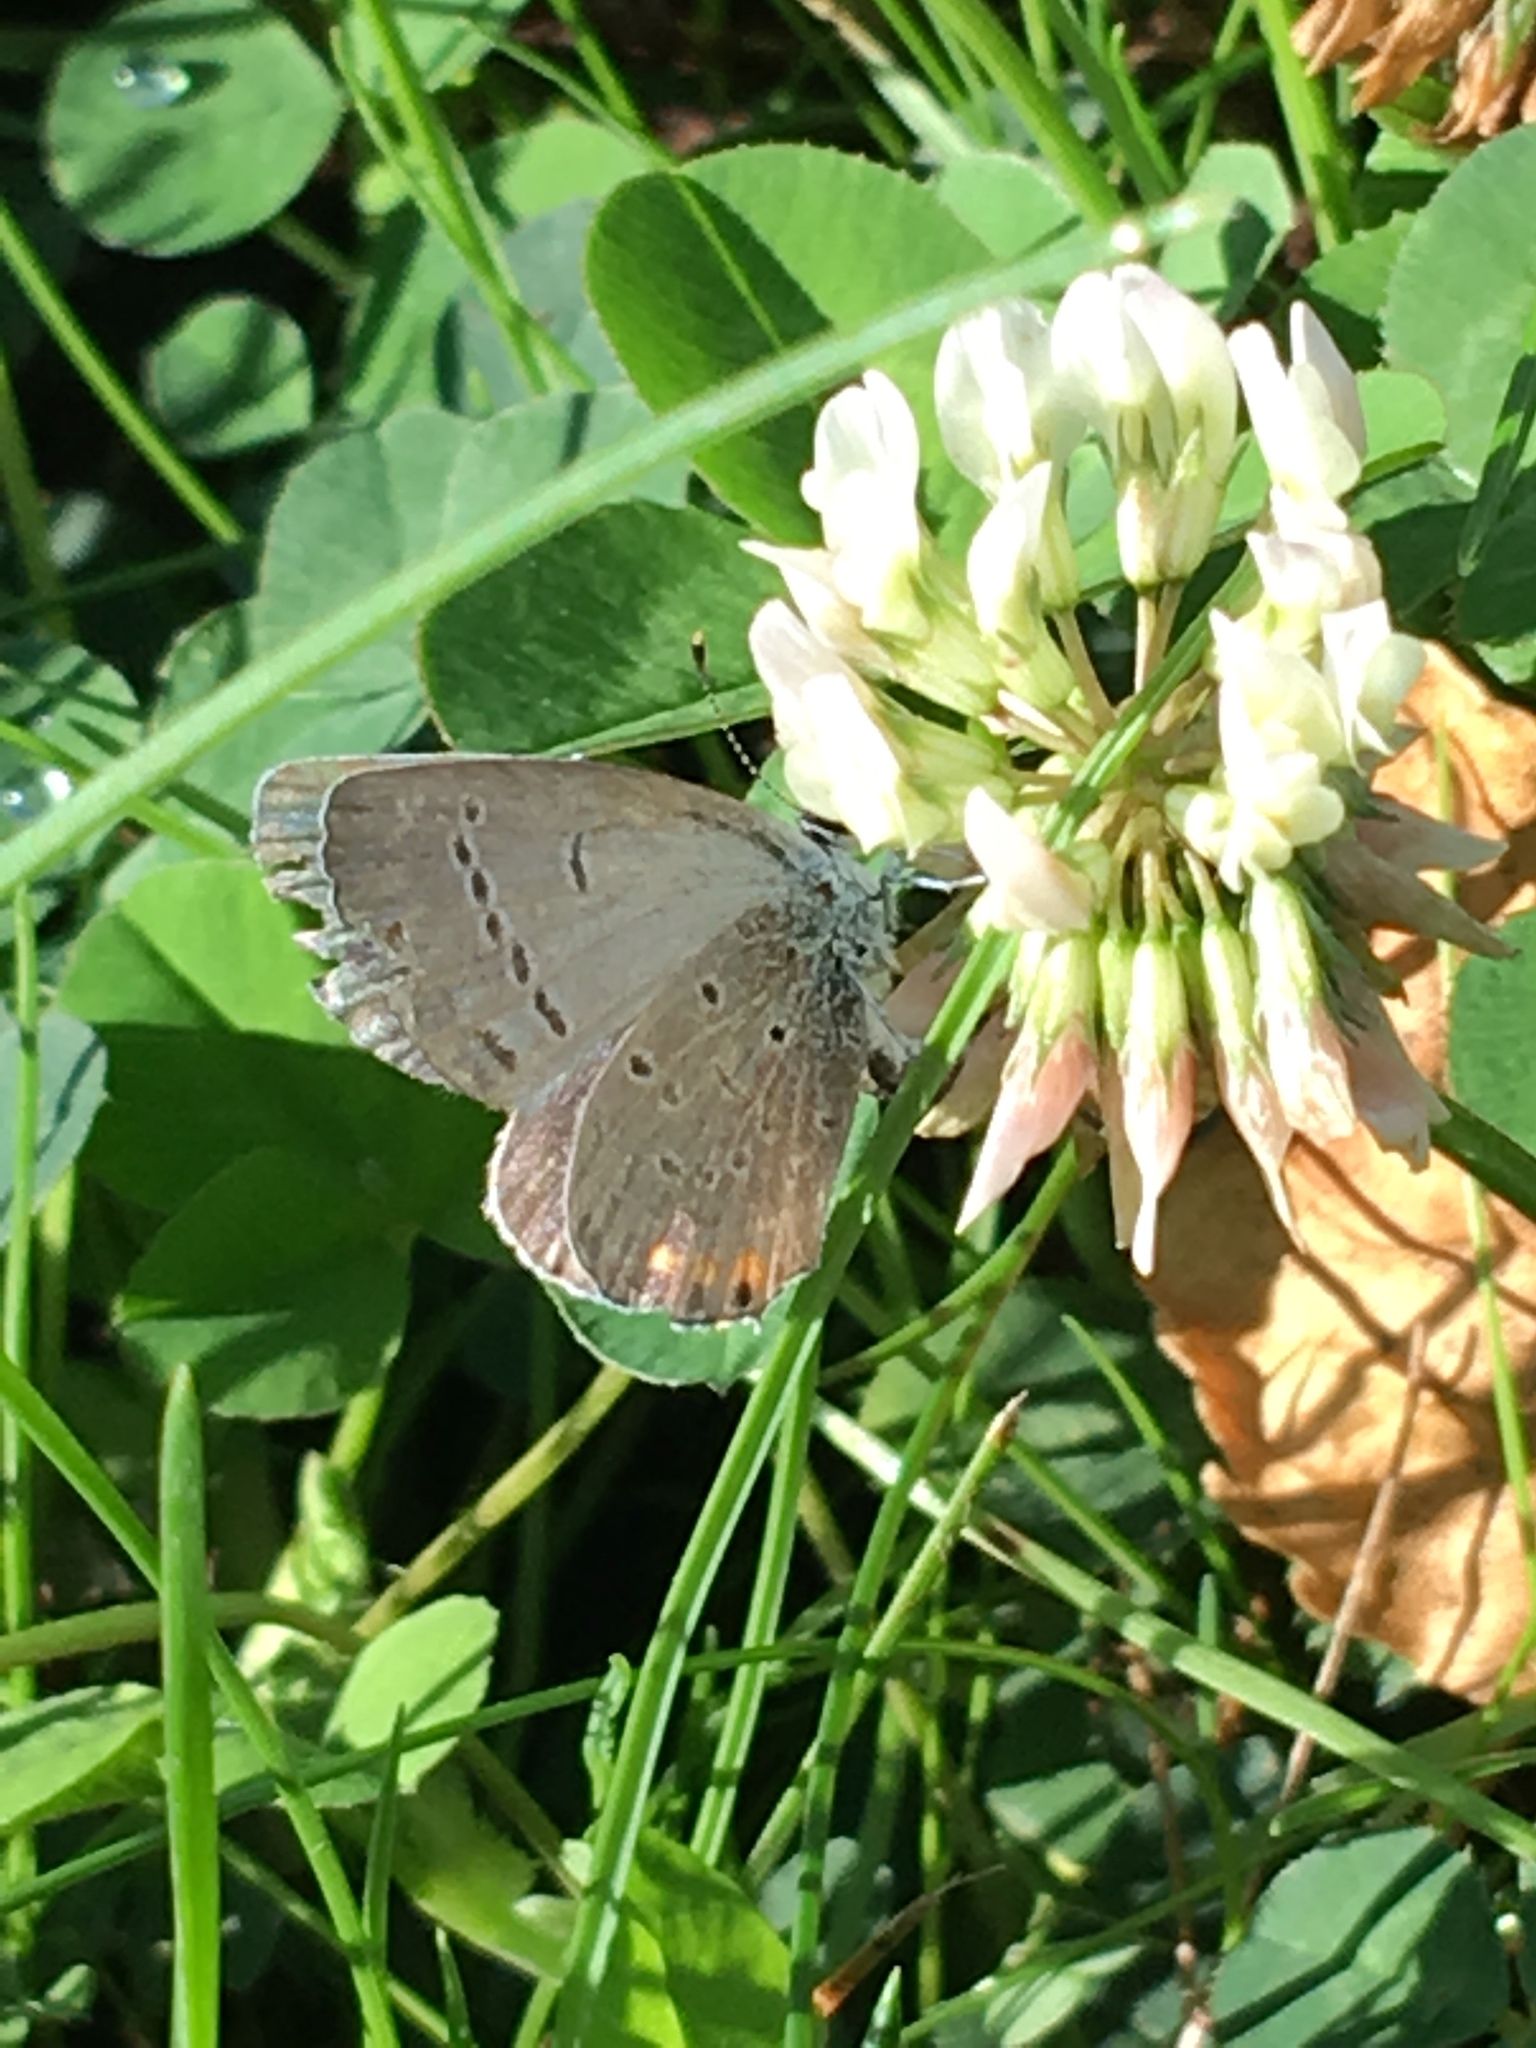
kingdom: Animalia
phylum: Arthropoda
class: Insecta
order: Lepidoptera
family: Lycaenidae
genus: Elkalyce
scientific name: Elkalyce comyntas
